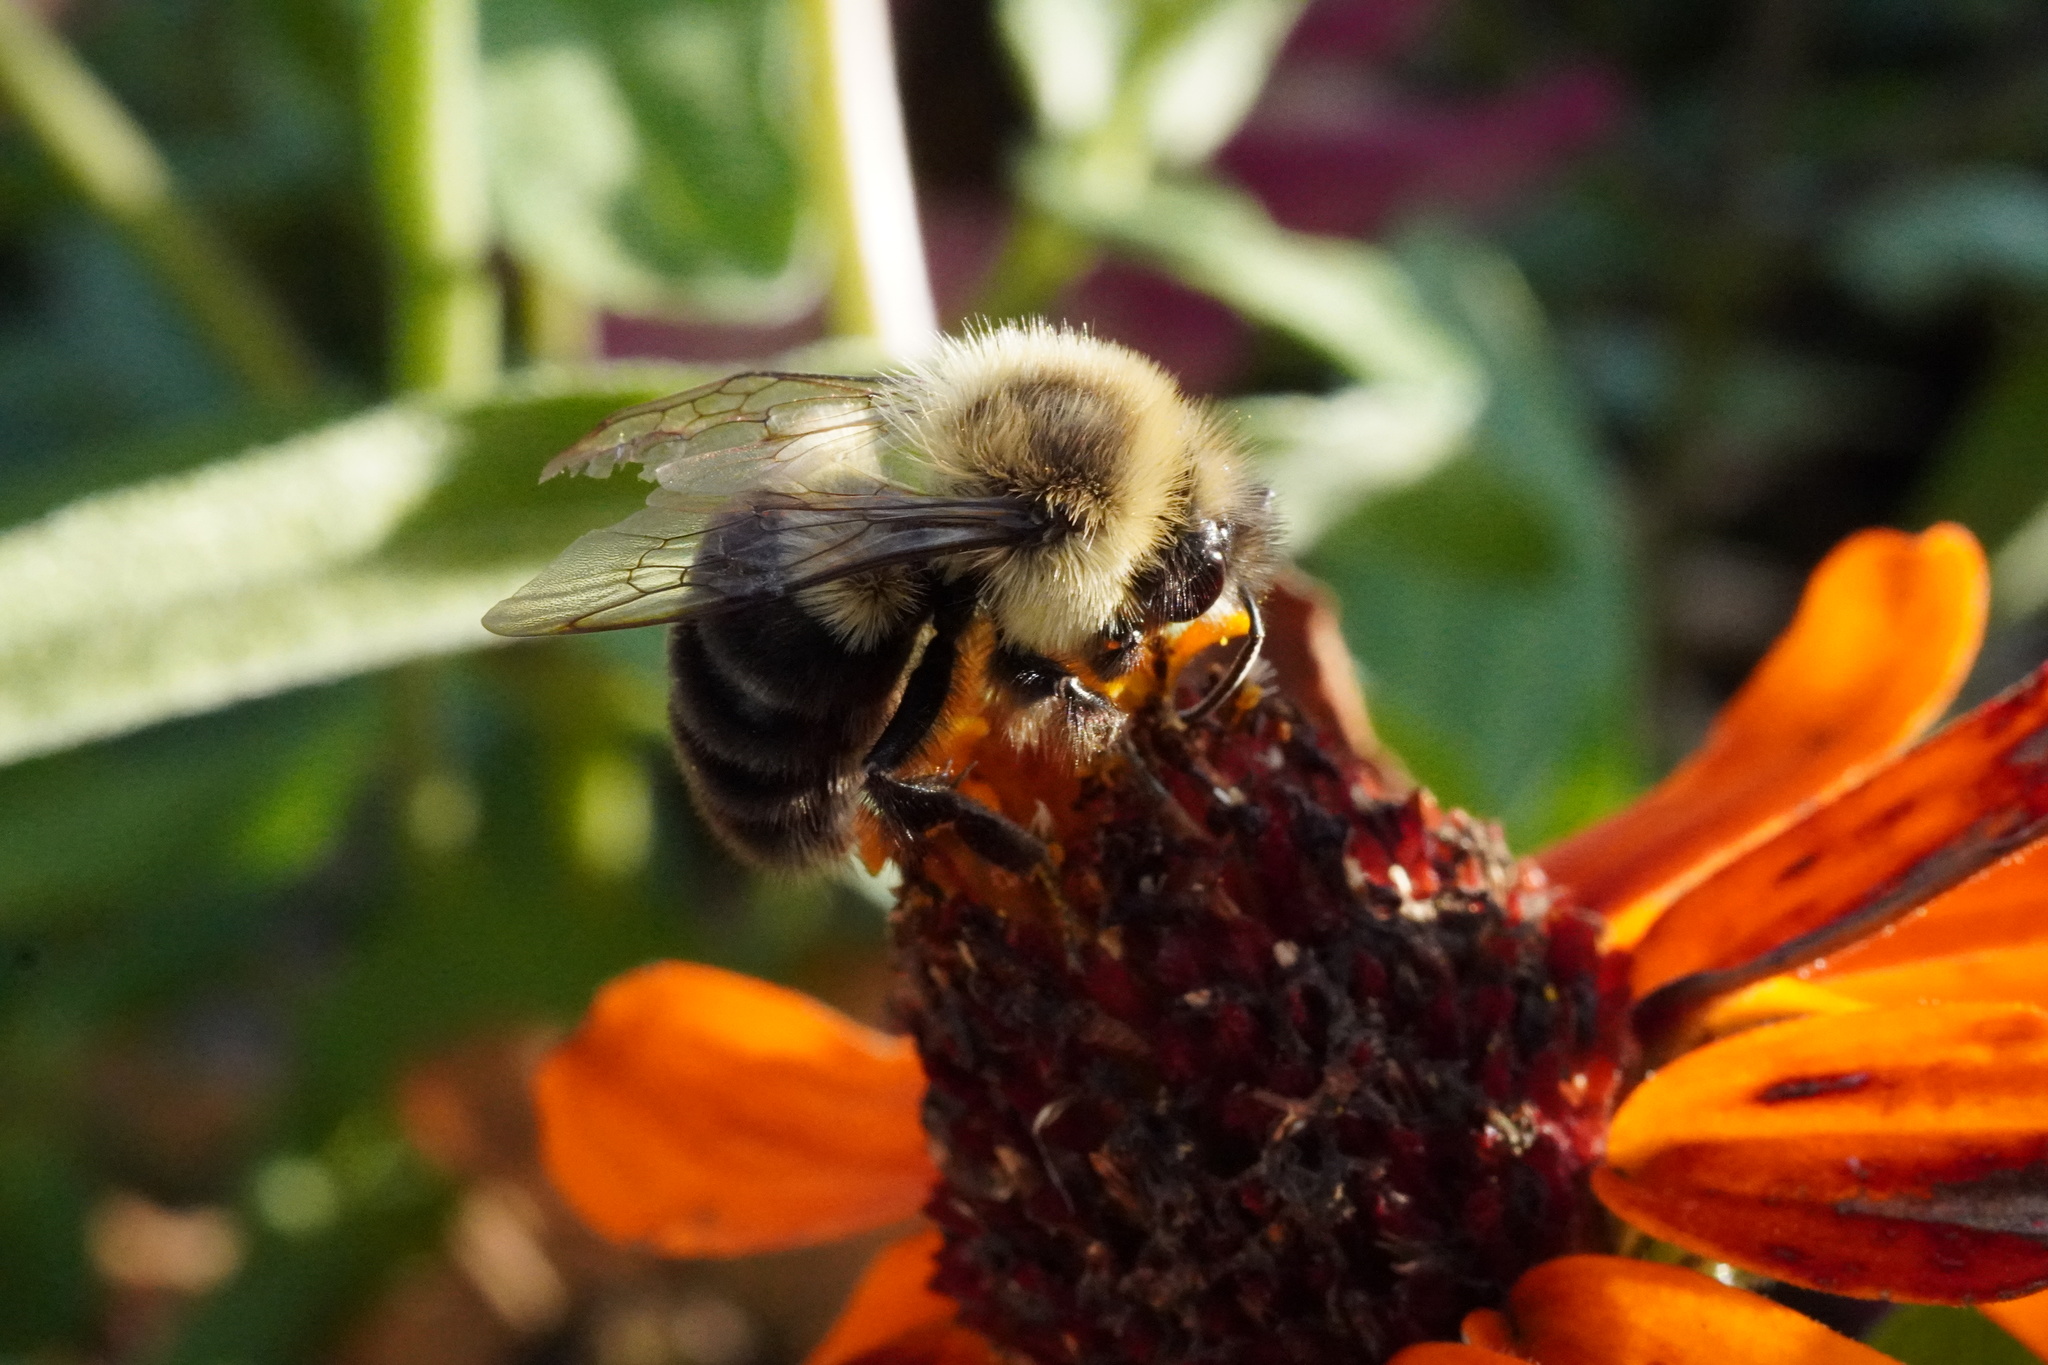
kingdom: Animalia
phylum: Arthropoda
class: Insecta
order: Hymenoptera
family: Apidae
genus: Bombus
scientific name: Bombus impatiens
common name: Common eastern bumble bee
